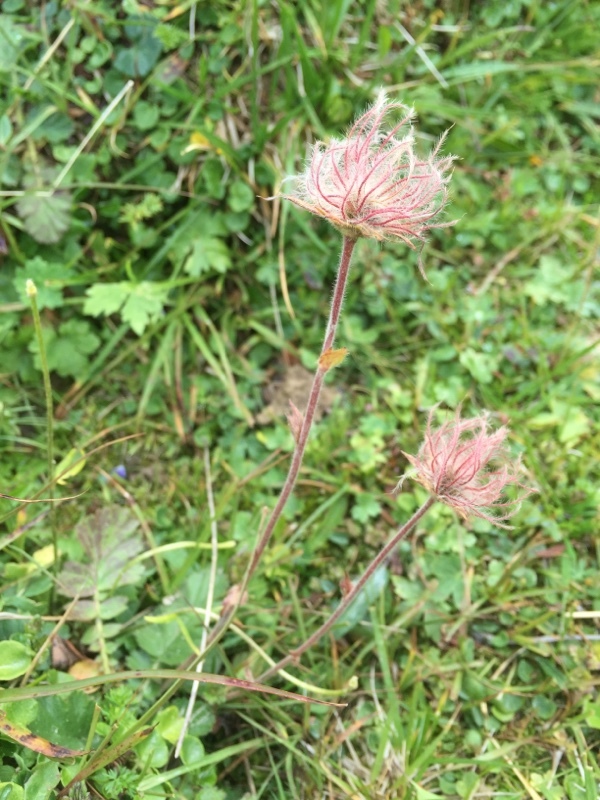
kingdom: Plantae
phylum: Tracheophyta
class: Magnoliopsida
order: Rosales
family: Rosaceae
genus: Geum
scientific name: Geum montanum
